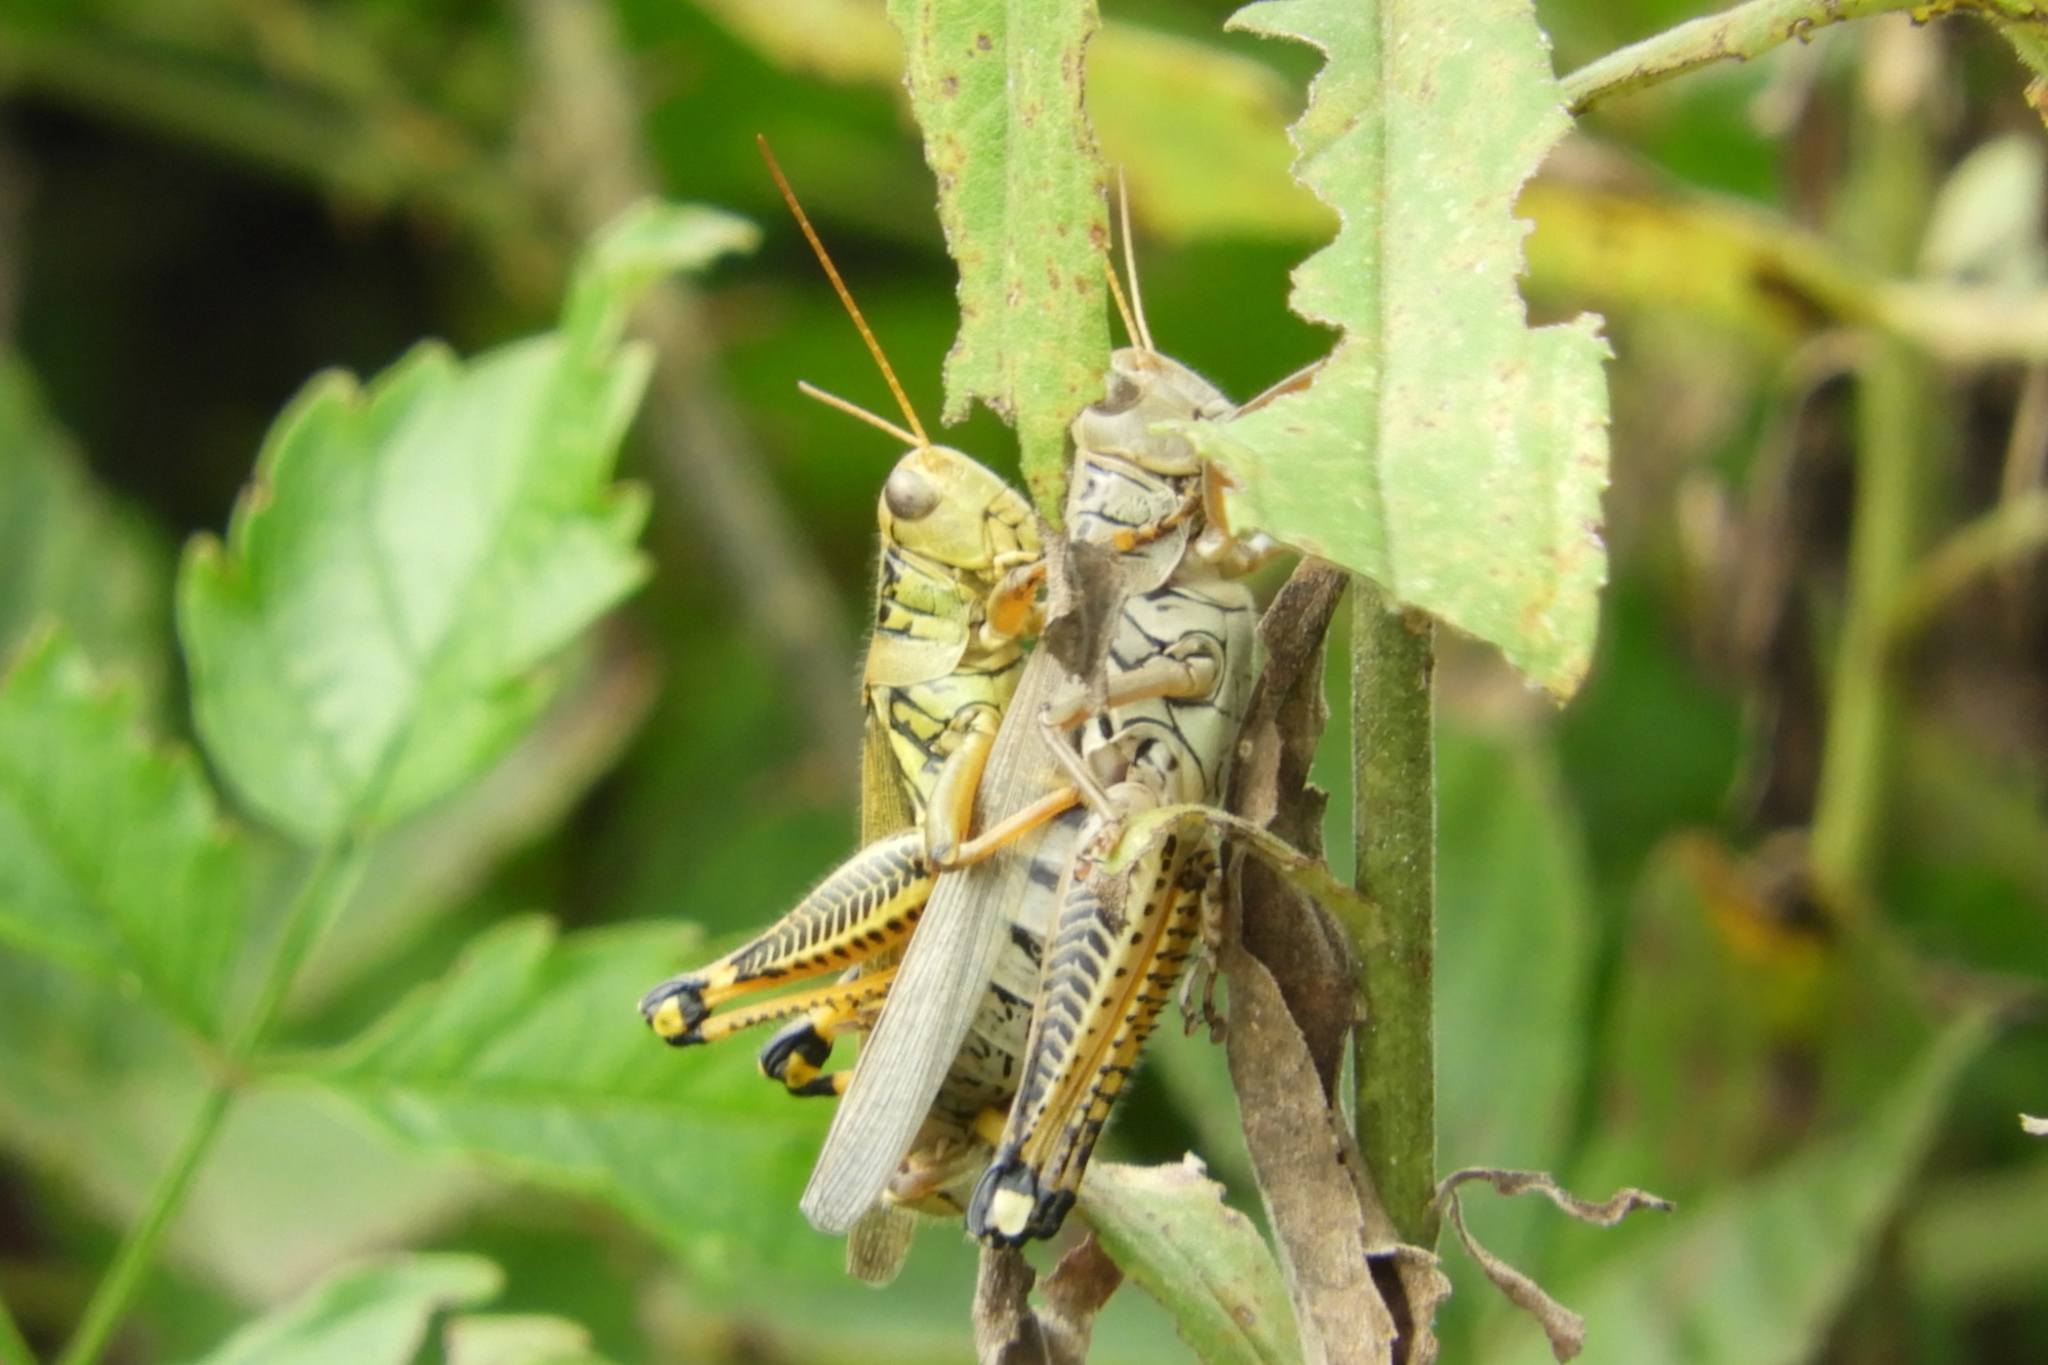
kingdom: Animalia
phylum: Arthropoda
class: Insecta
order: Orthoptera
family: Acrididae
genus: Melanoplus
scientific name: Melanoplus differentialis
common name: Differential grasshopper
